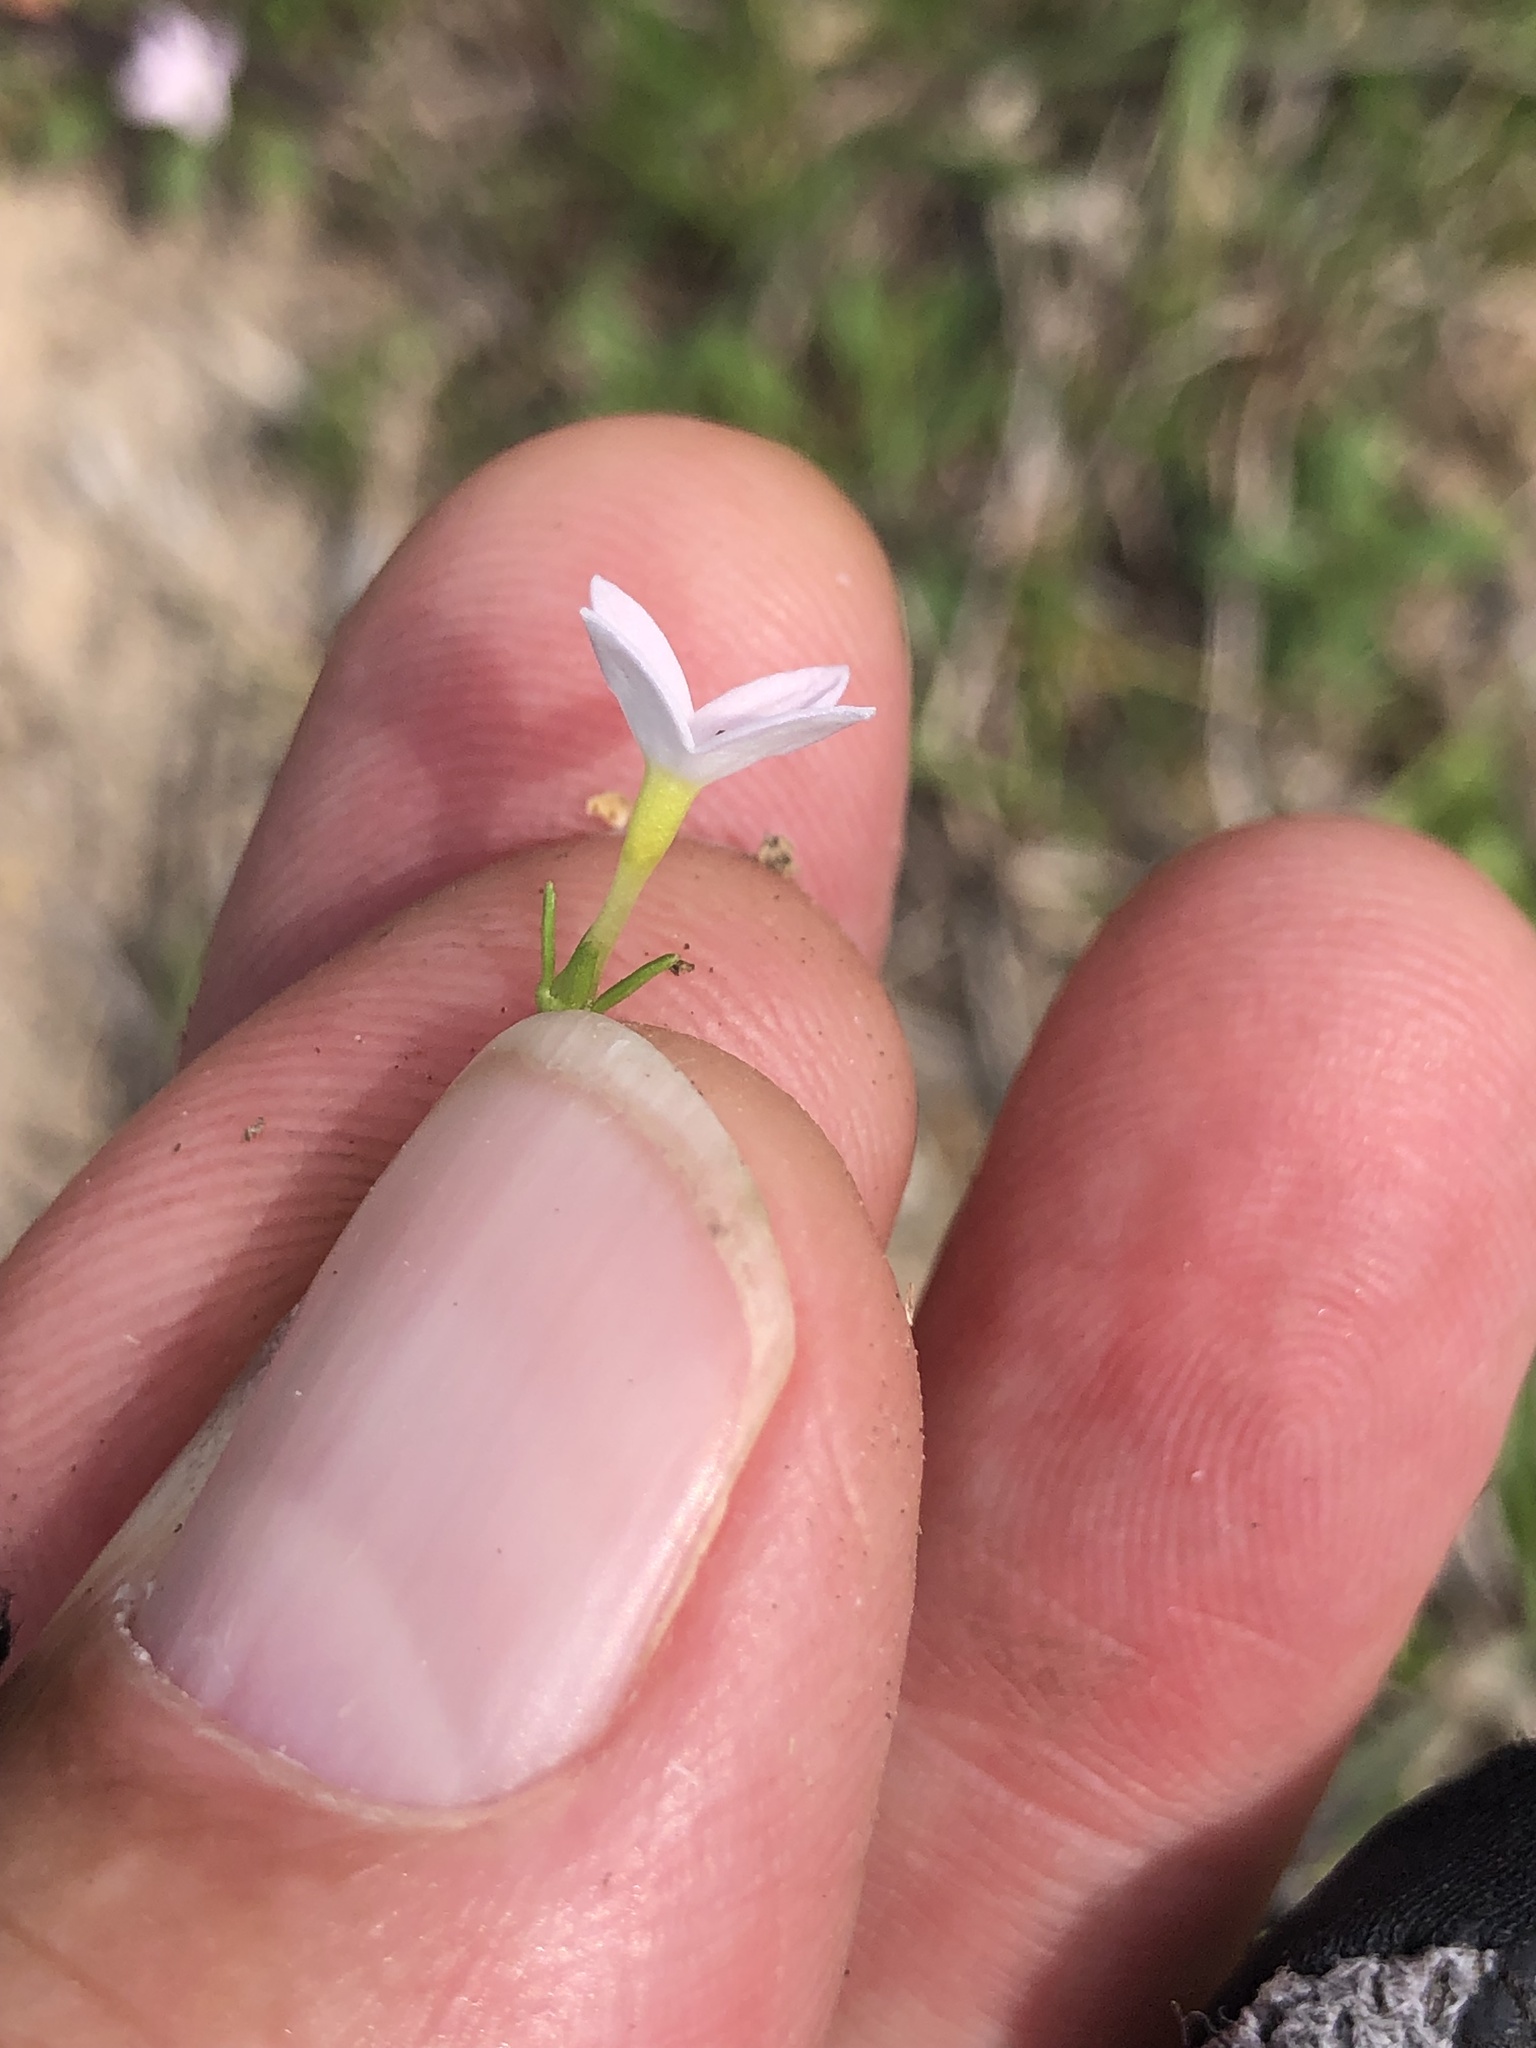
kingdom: Plantae
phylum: Tracheophyta
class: Magnoliopsida
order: Gentianales
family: Rubiaceae
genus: Houstonia
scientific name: Houstonia rosea
